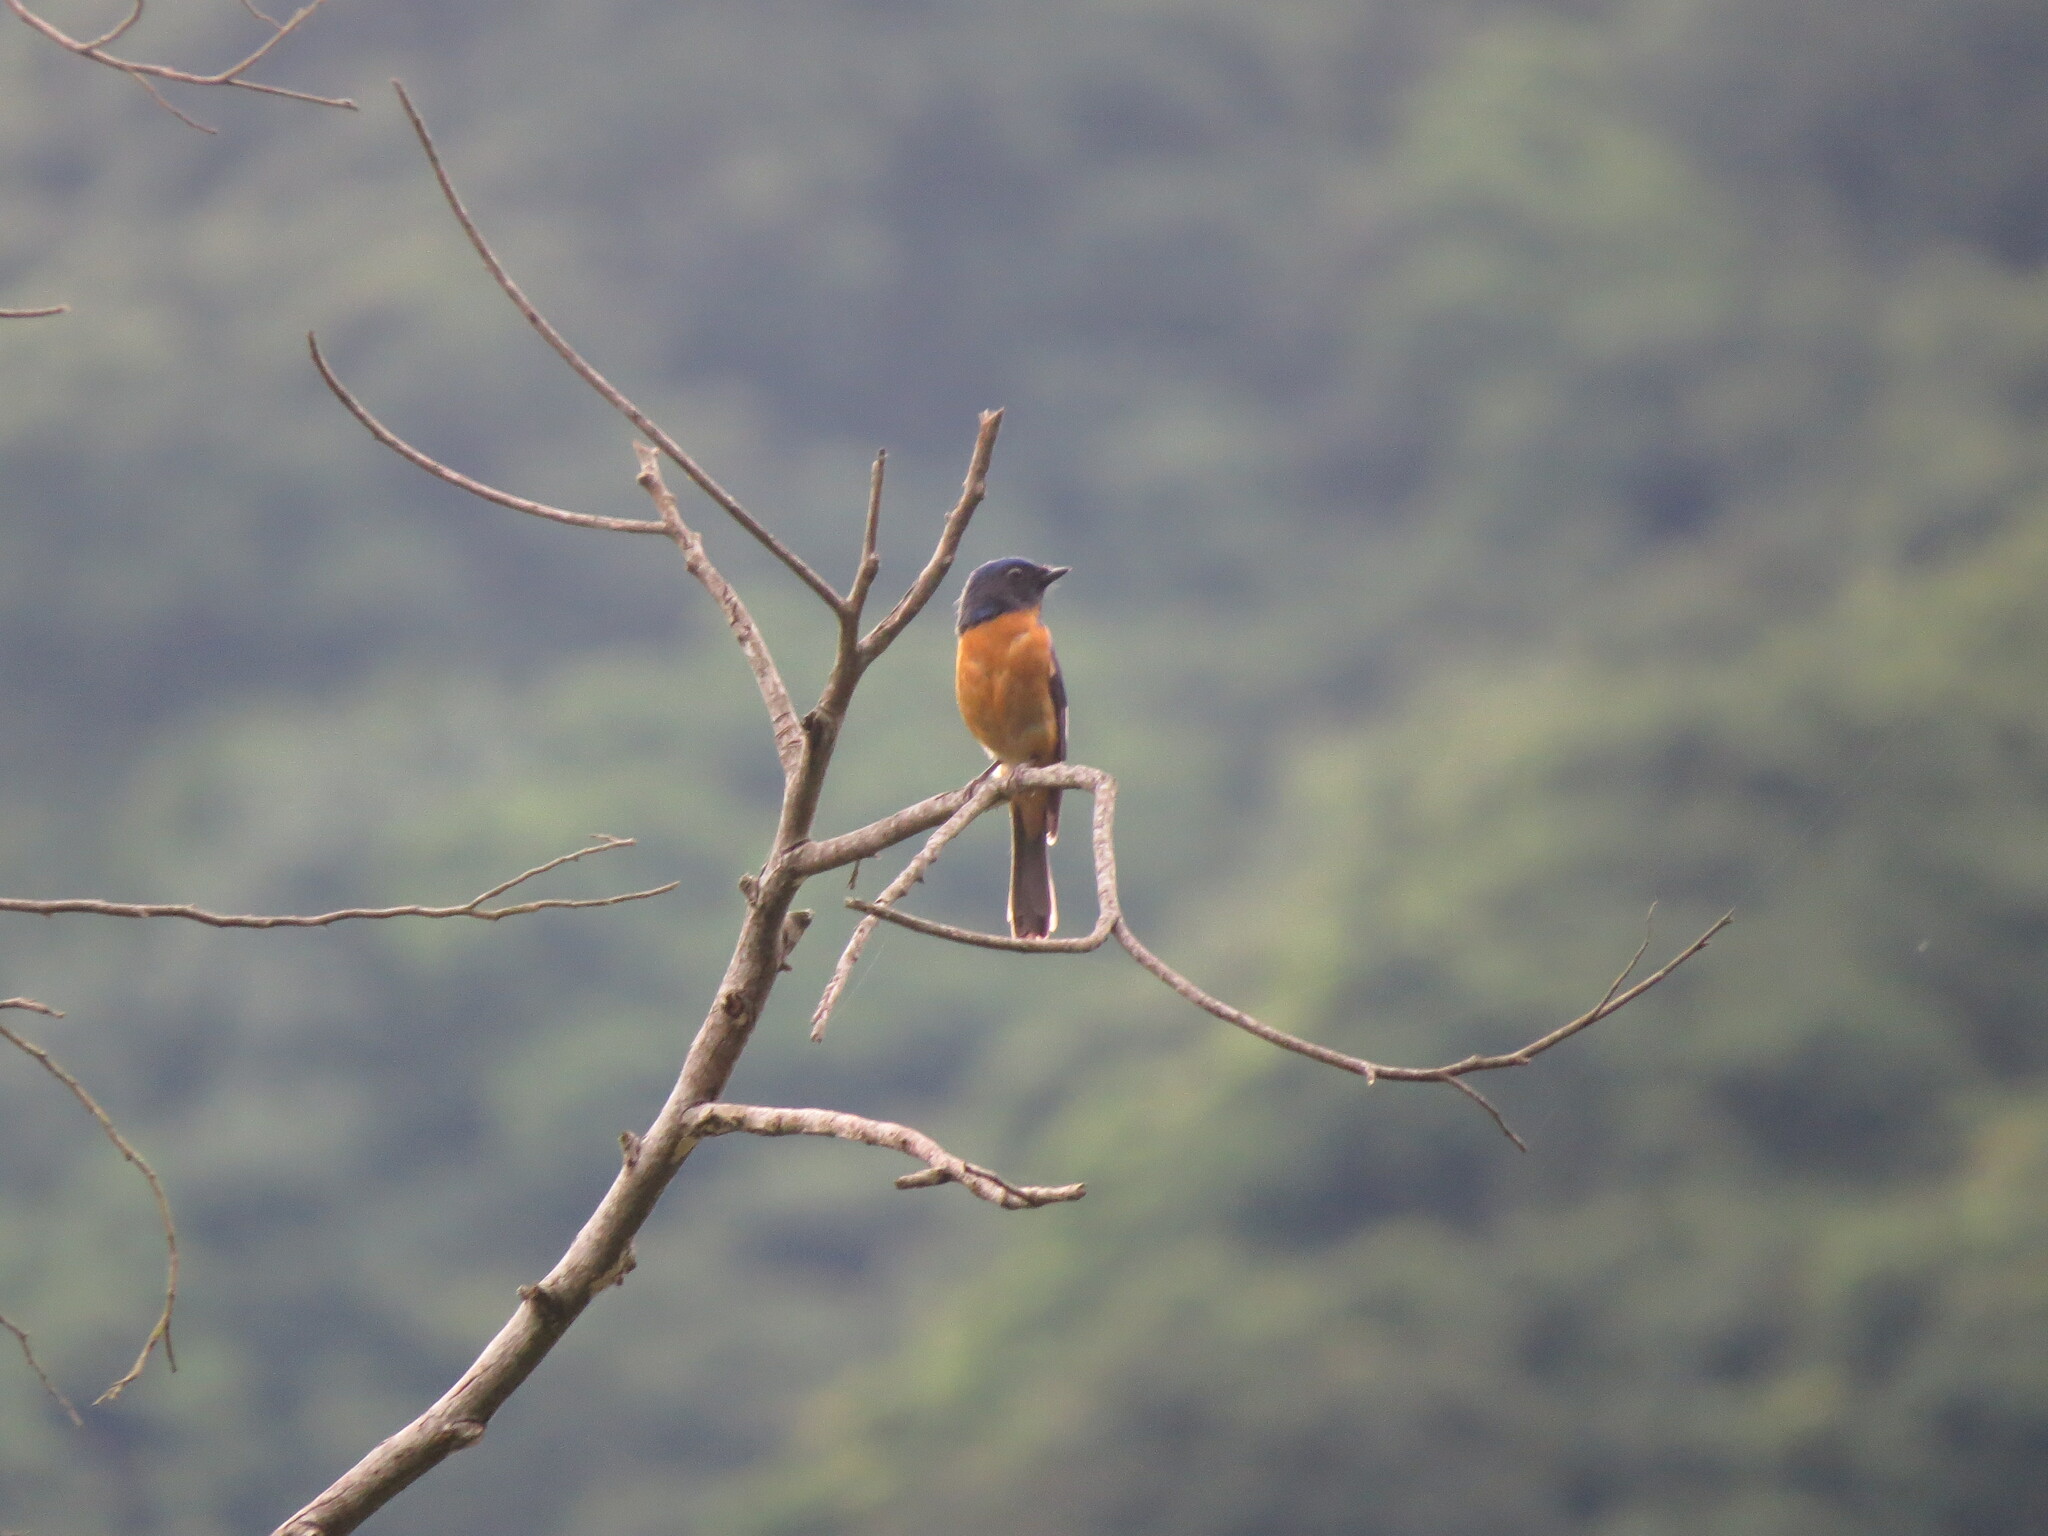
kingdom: Animalia
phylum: Chordata
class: Aves
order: Passeriformes
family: Muscicapidae
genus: Niltava
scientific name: Niltava vivida
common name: Vivid niltava
